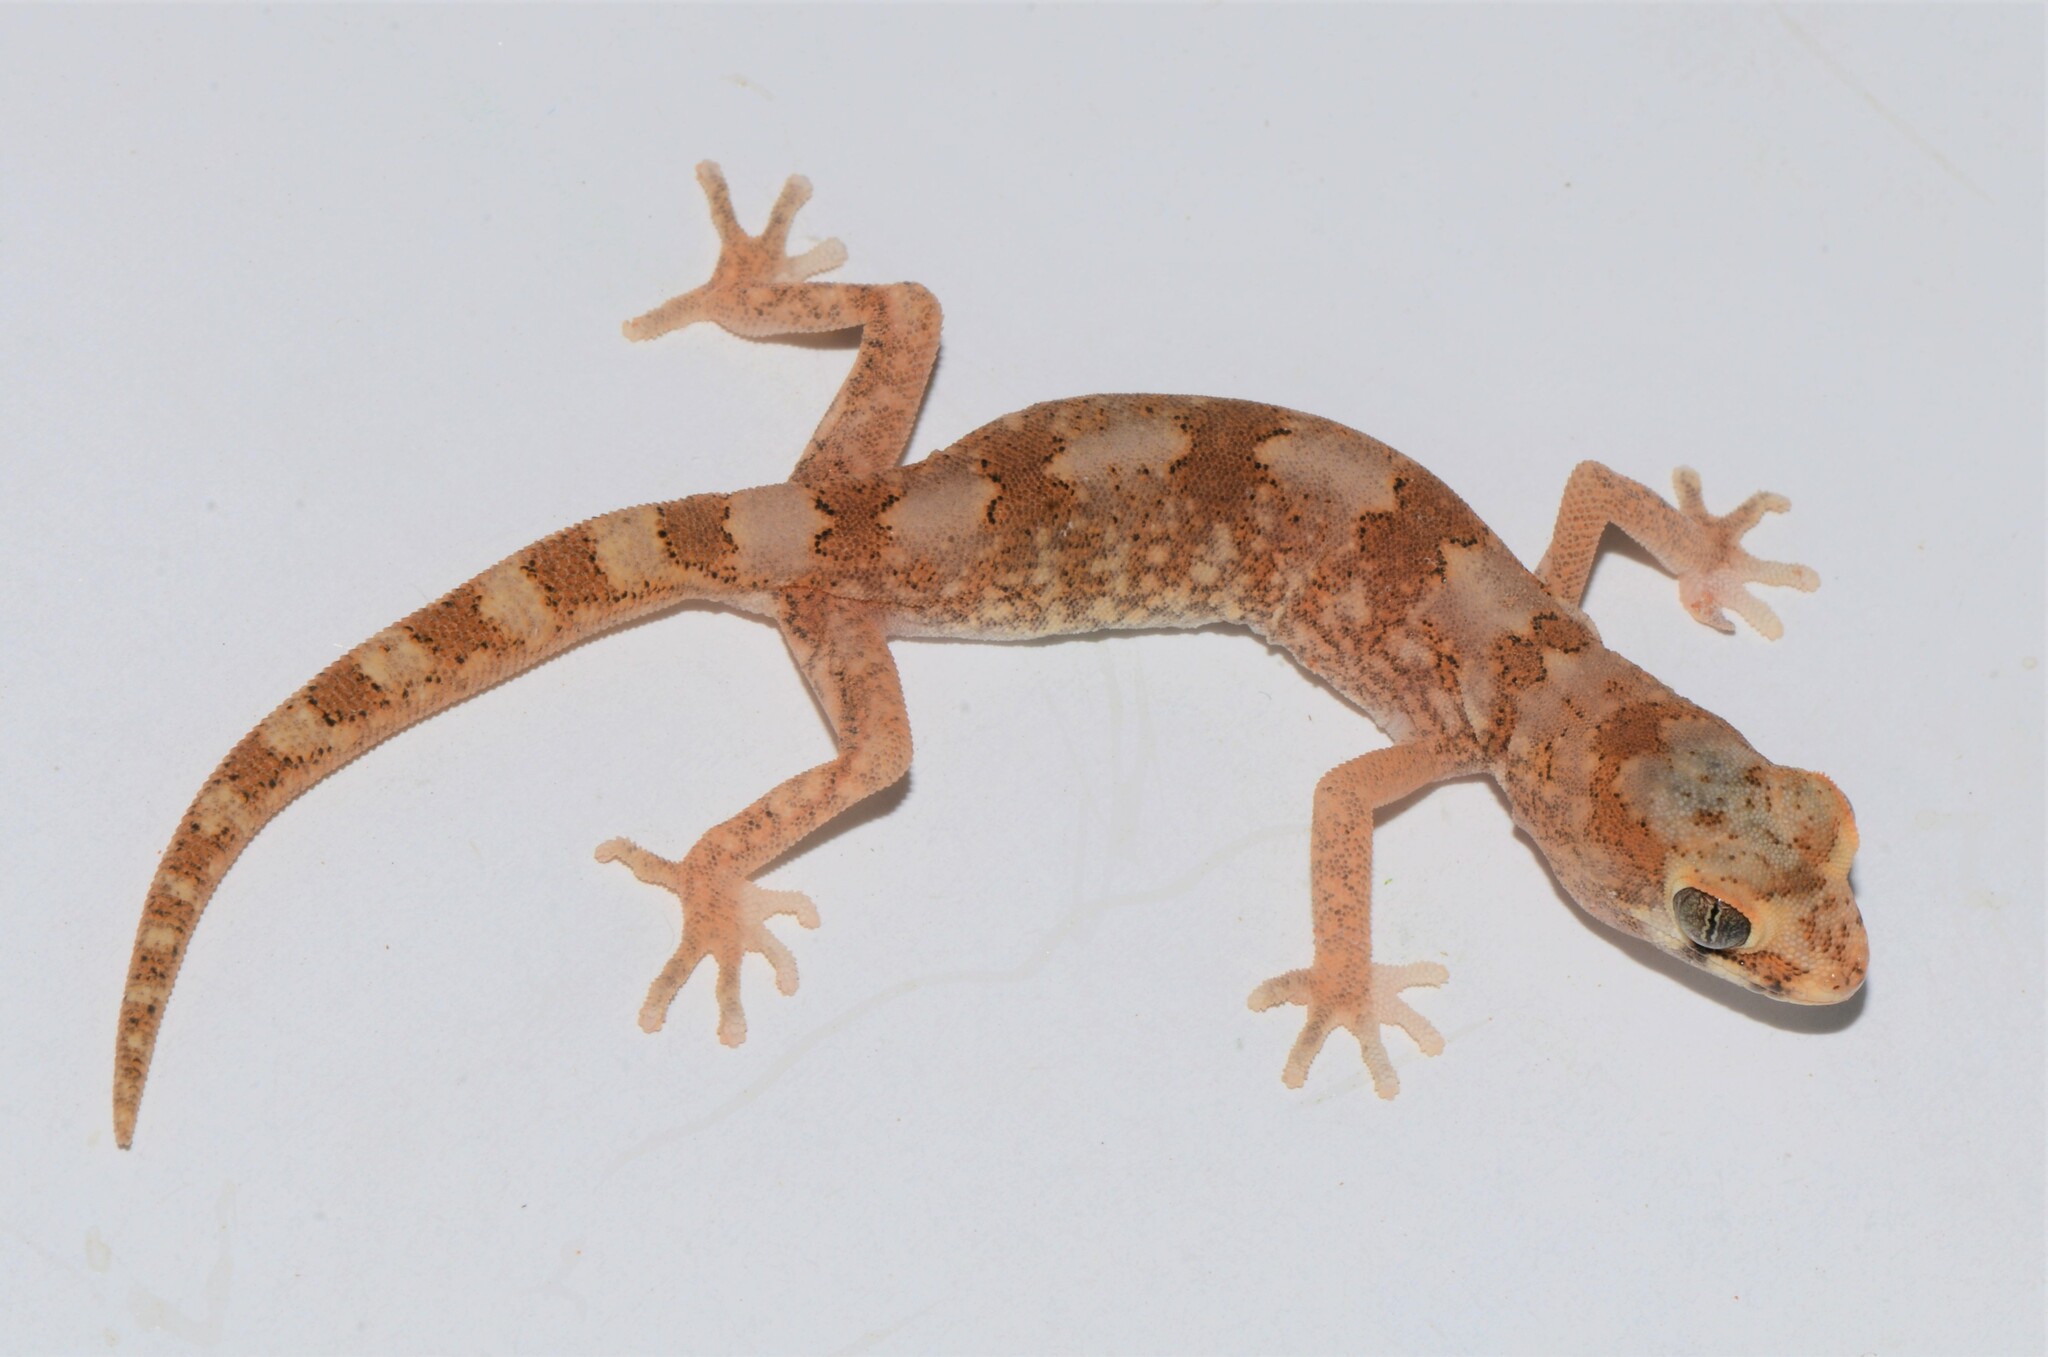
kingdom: Animalia
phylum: Chordata
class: Squamata
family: Gekkonidae
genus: Pachydactylus
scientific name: Pachydactylus latirostris
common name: Quartz gecko
